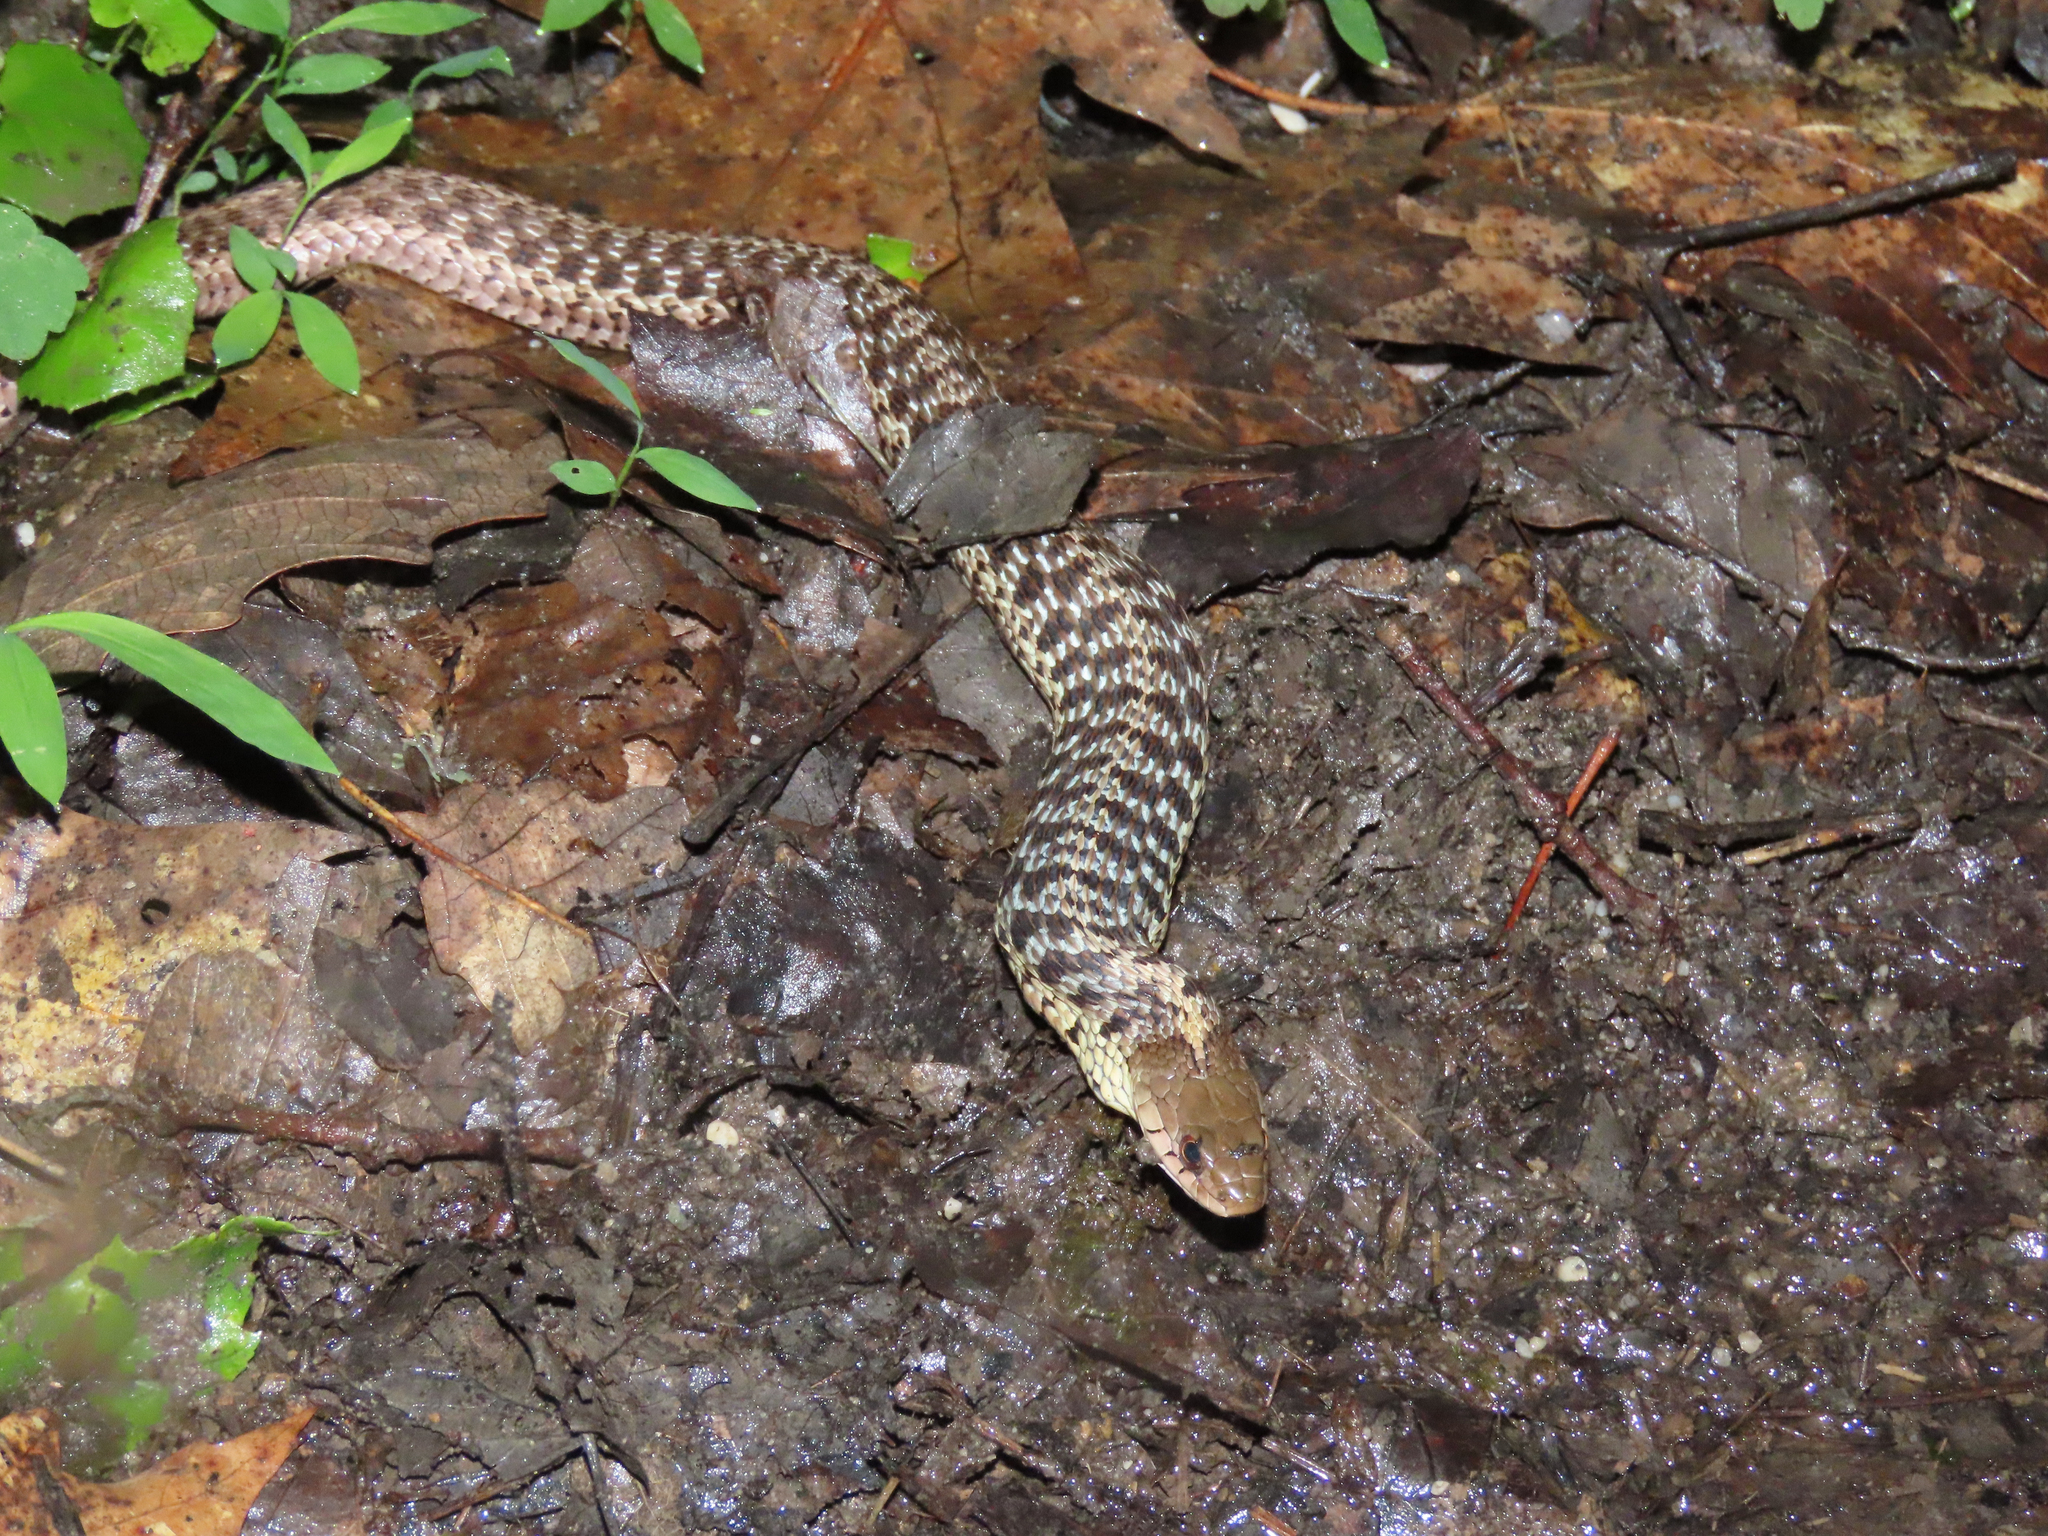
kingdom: Animalia
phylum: Chordata
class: Squamata
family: Colubridae
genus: Thamnophis
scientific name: Thamnophis sirtalis
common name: Common garter snake
